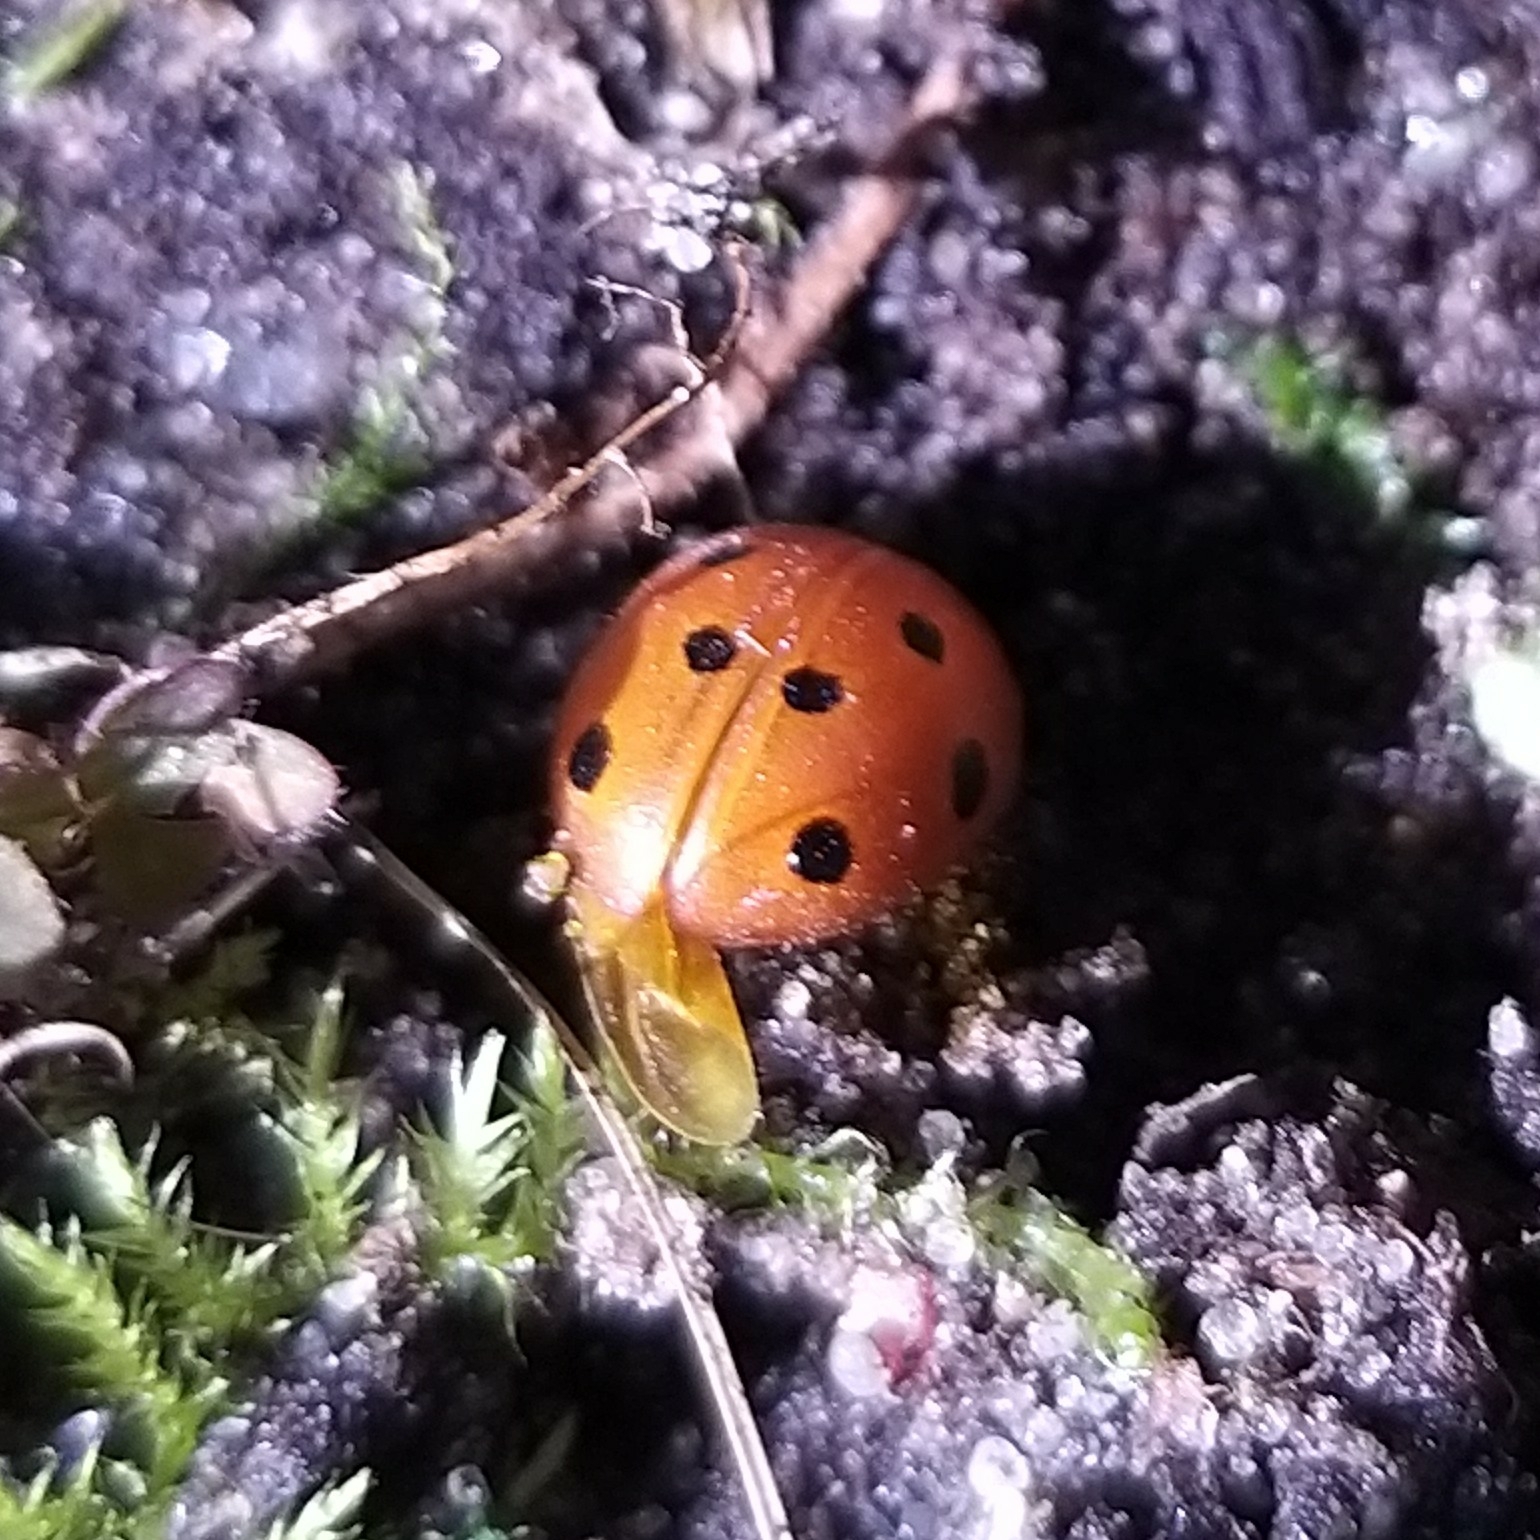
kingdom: Animalia
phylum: Arthropoda
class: Insecta
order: Coleoptera
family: Coccinellidae
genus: Henosepilachna
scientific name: Henosepilachna argus
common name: Bryony ladybird
